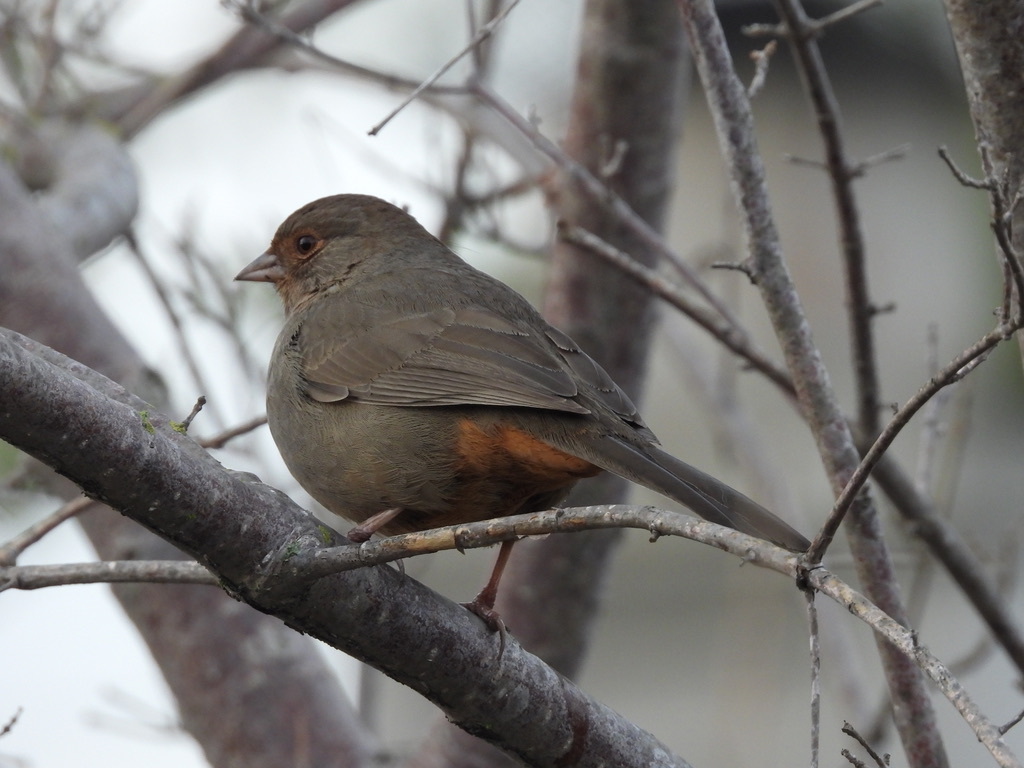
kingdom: Animalia
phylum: Chordata
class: Aves
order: Passeriformes
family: Passerellidae
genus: Melozone
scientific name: Melozone crissalis
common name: California towhee
